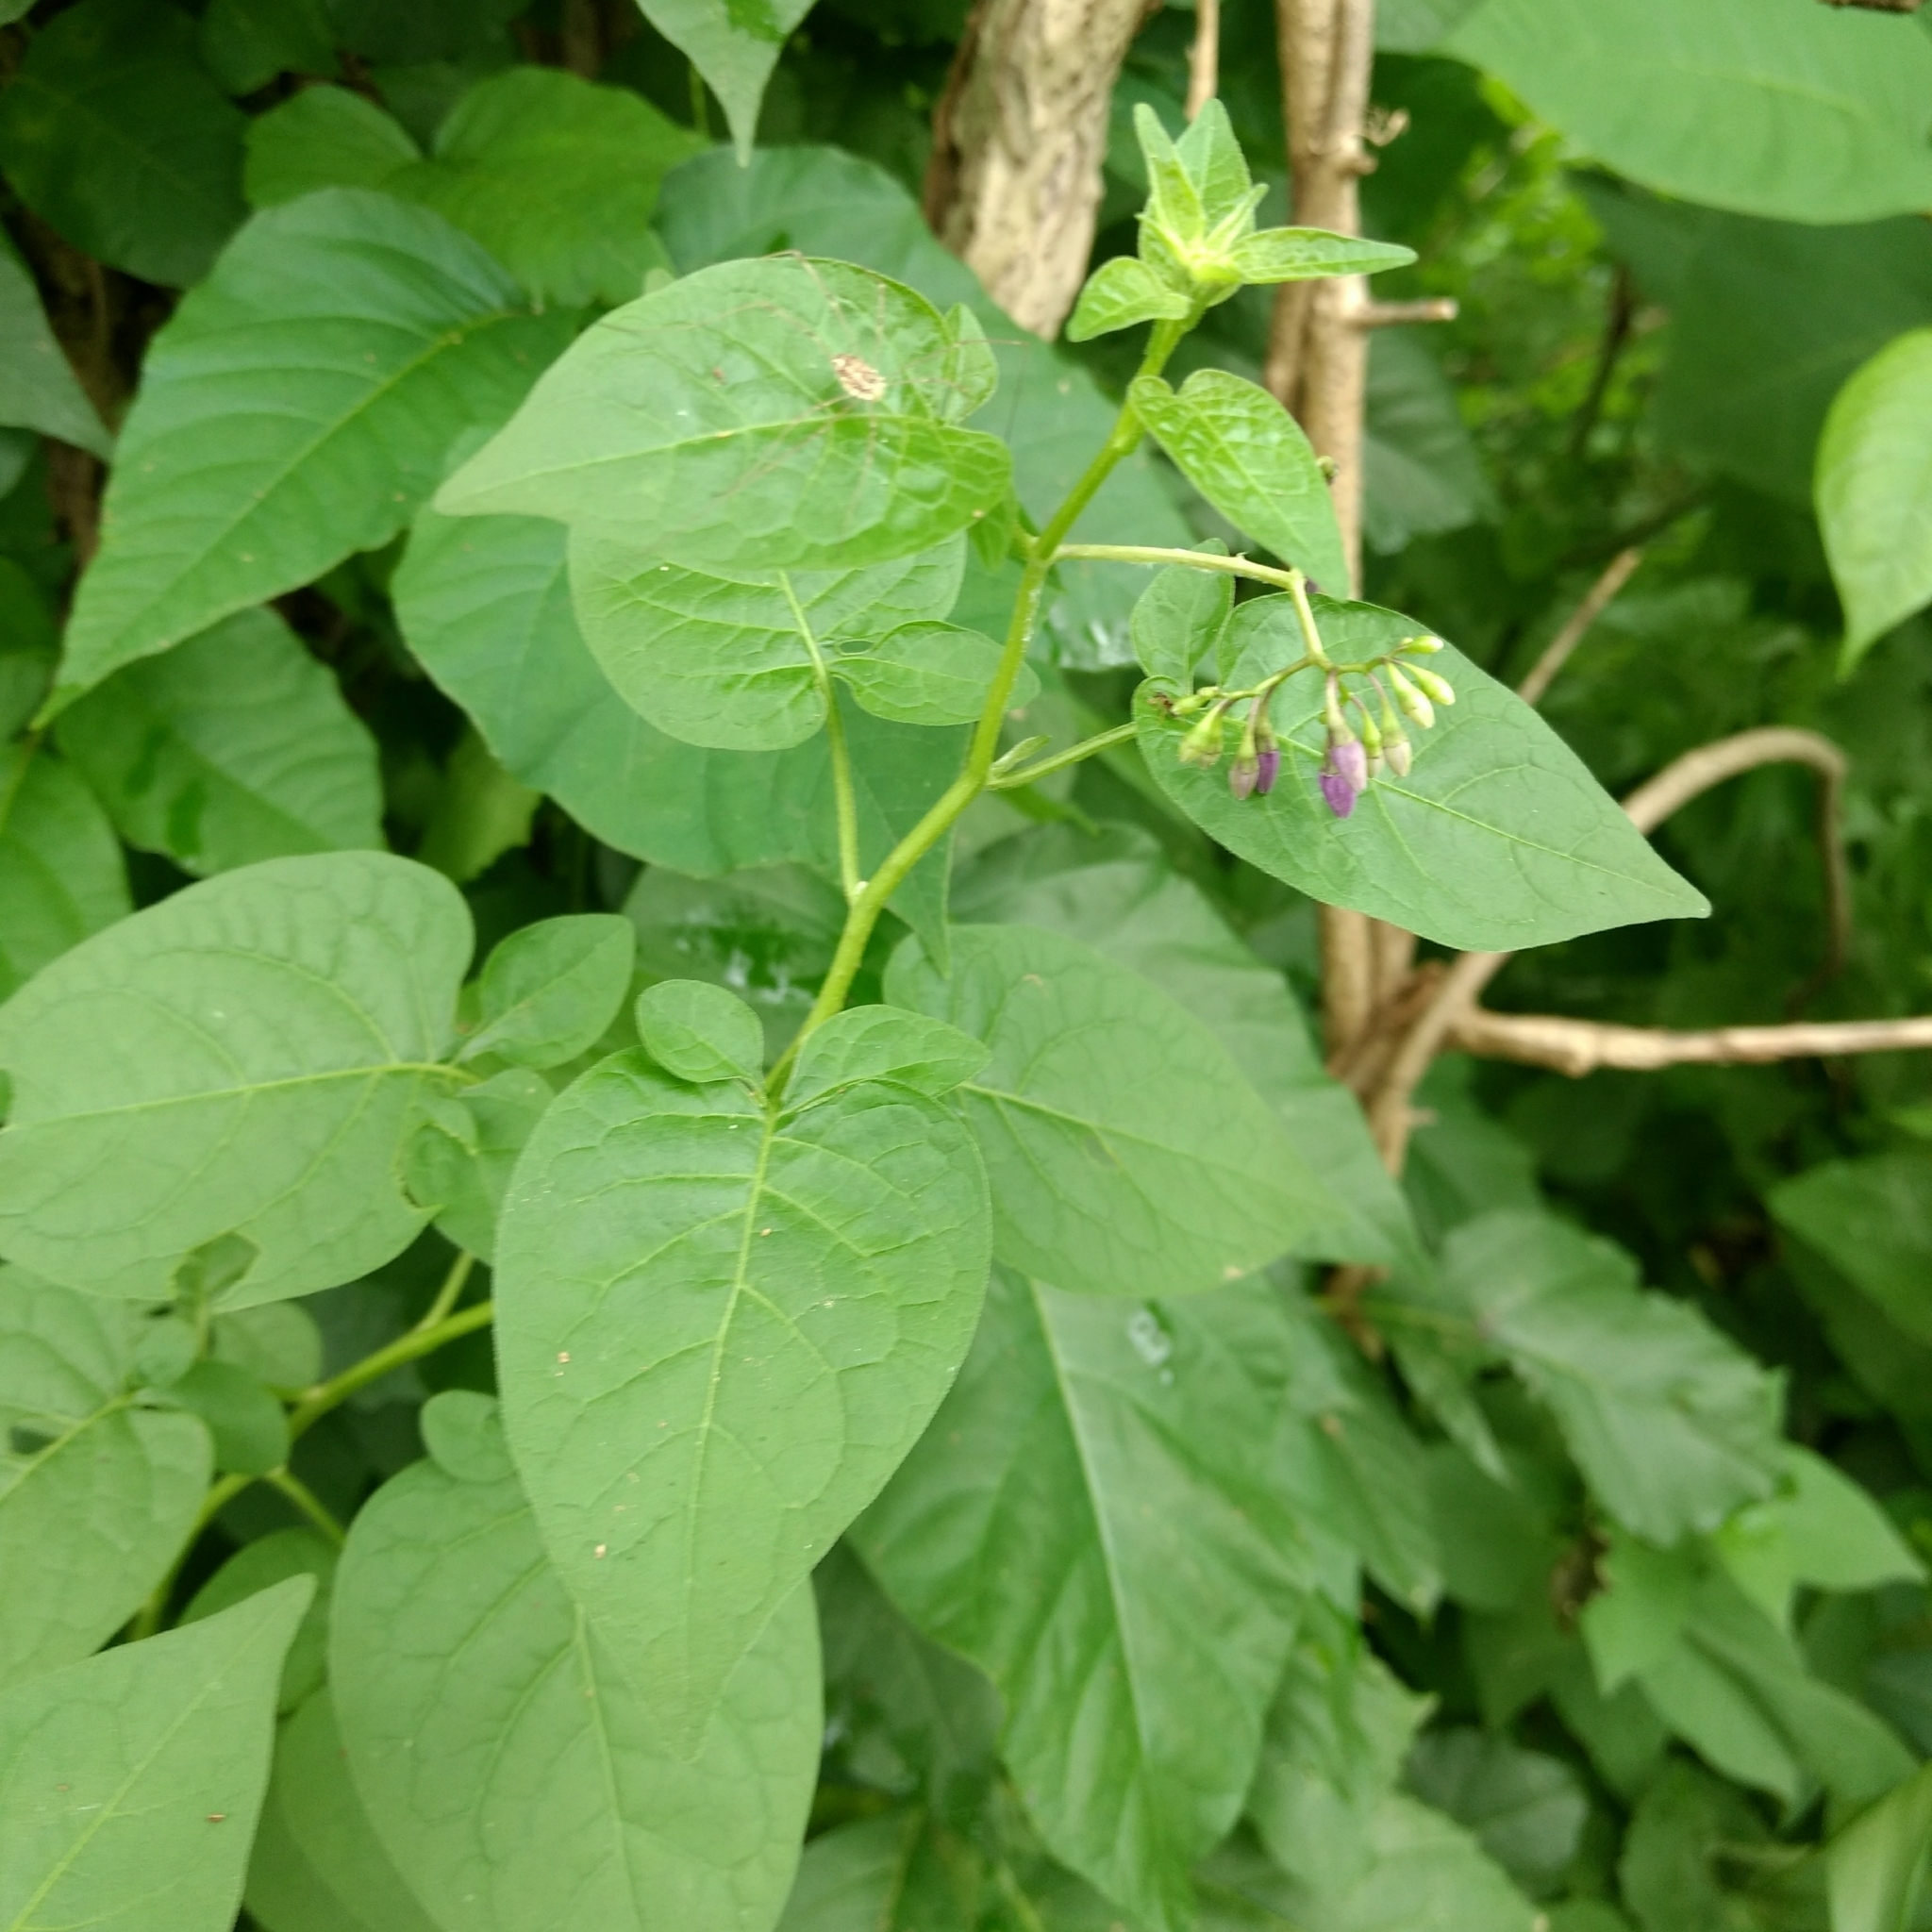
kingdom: Plantae
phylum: Tracheophyta
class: Magnoliopsida
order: Solanales
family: Solanaceae
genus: Solanum
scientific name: Solanum dulcamara
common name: Climbing nightshade
